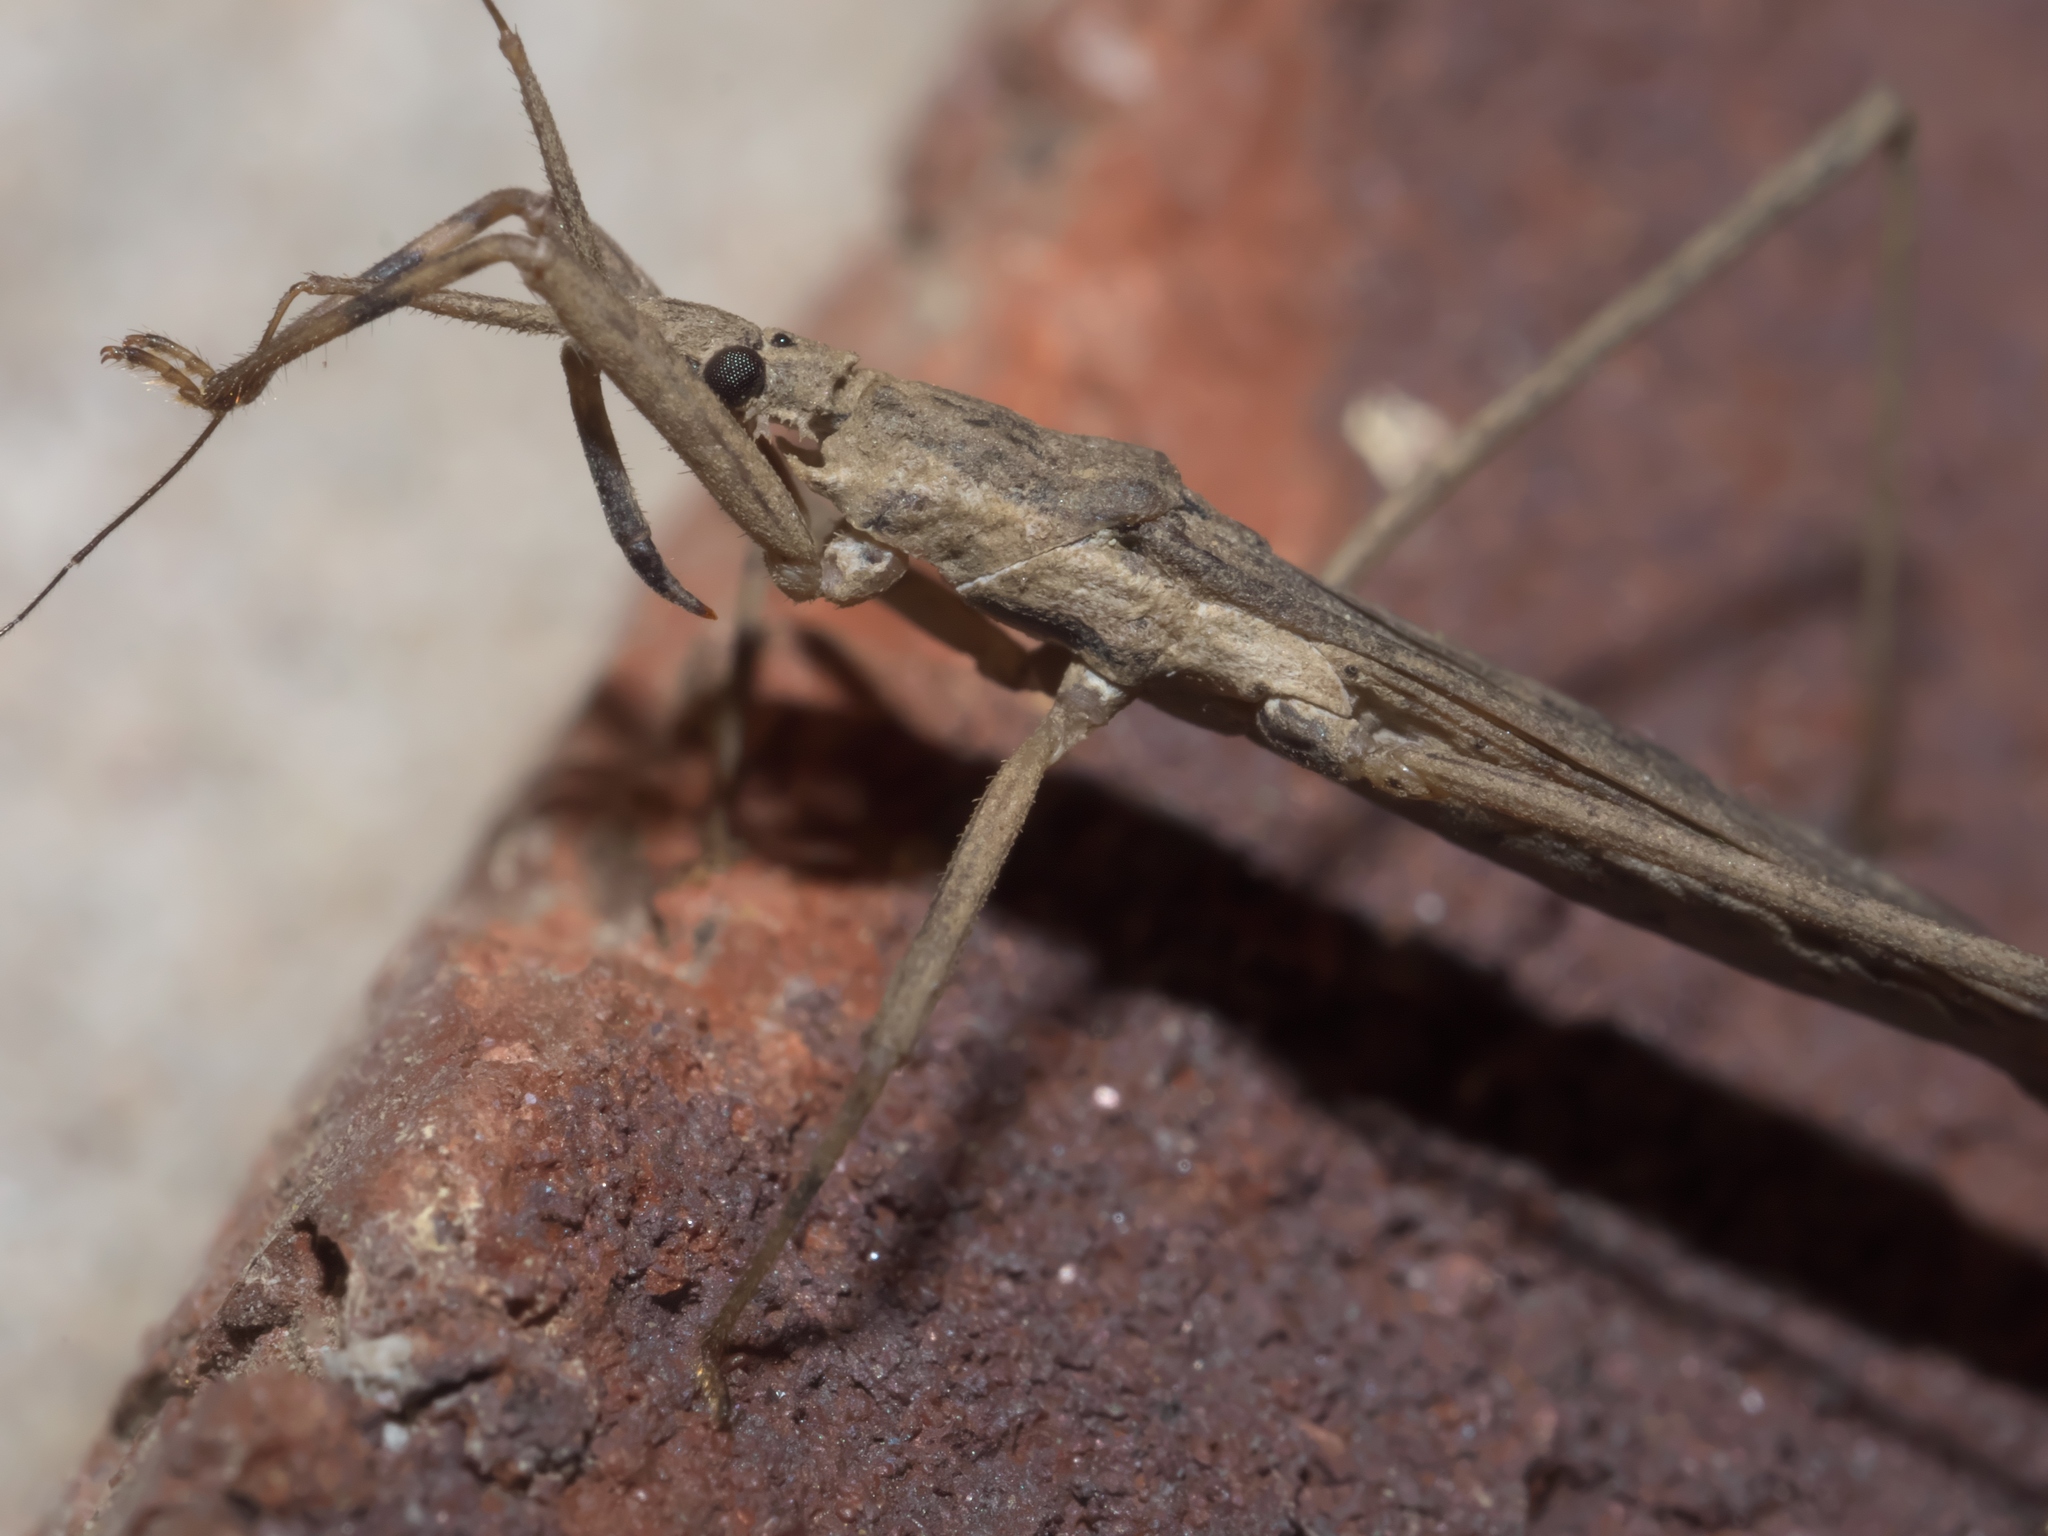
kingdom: Animalia
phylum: Arthropoda
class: Insecta
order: Hemiptera
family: Reduviidae
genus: Pygolampis
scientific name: Pygolampis pectoralis
